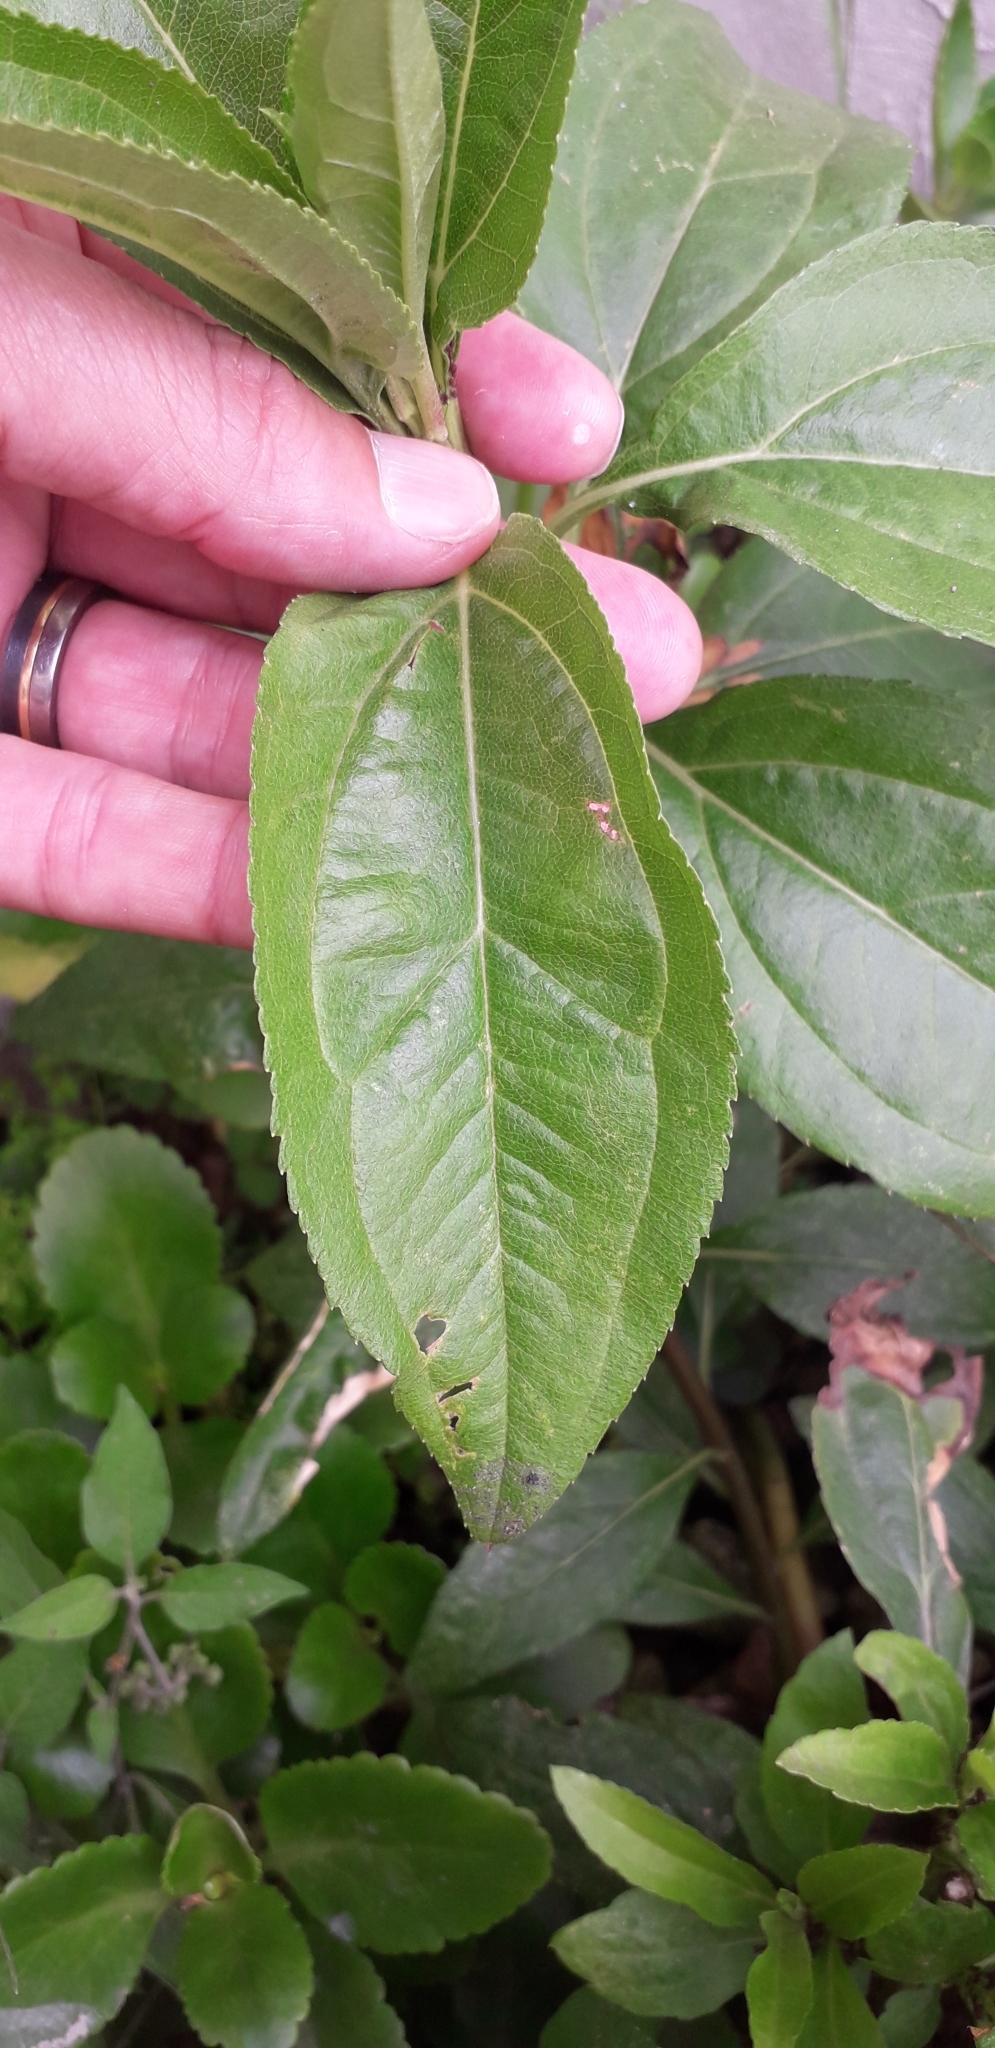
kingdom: Plantae
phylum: Tracheophyta
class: Magnoliopsida
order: Asterales
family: Asteraceae
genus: Baccharis
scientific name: Baccharis latifolia
